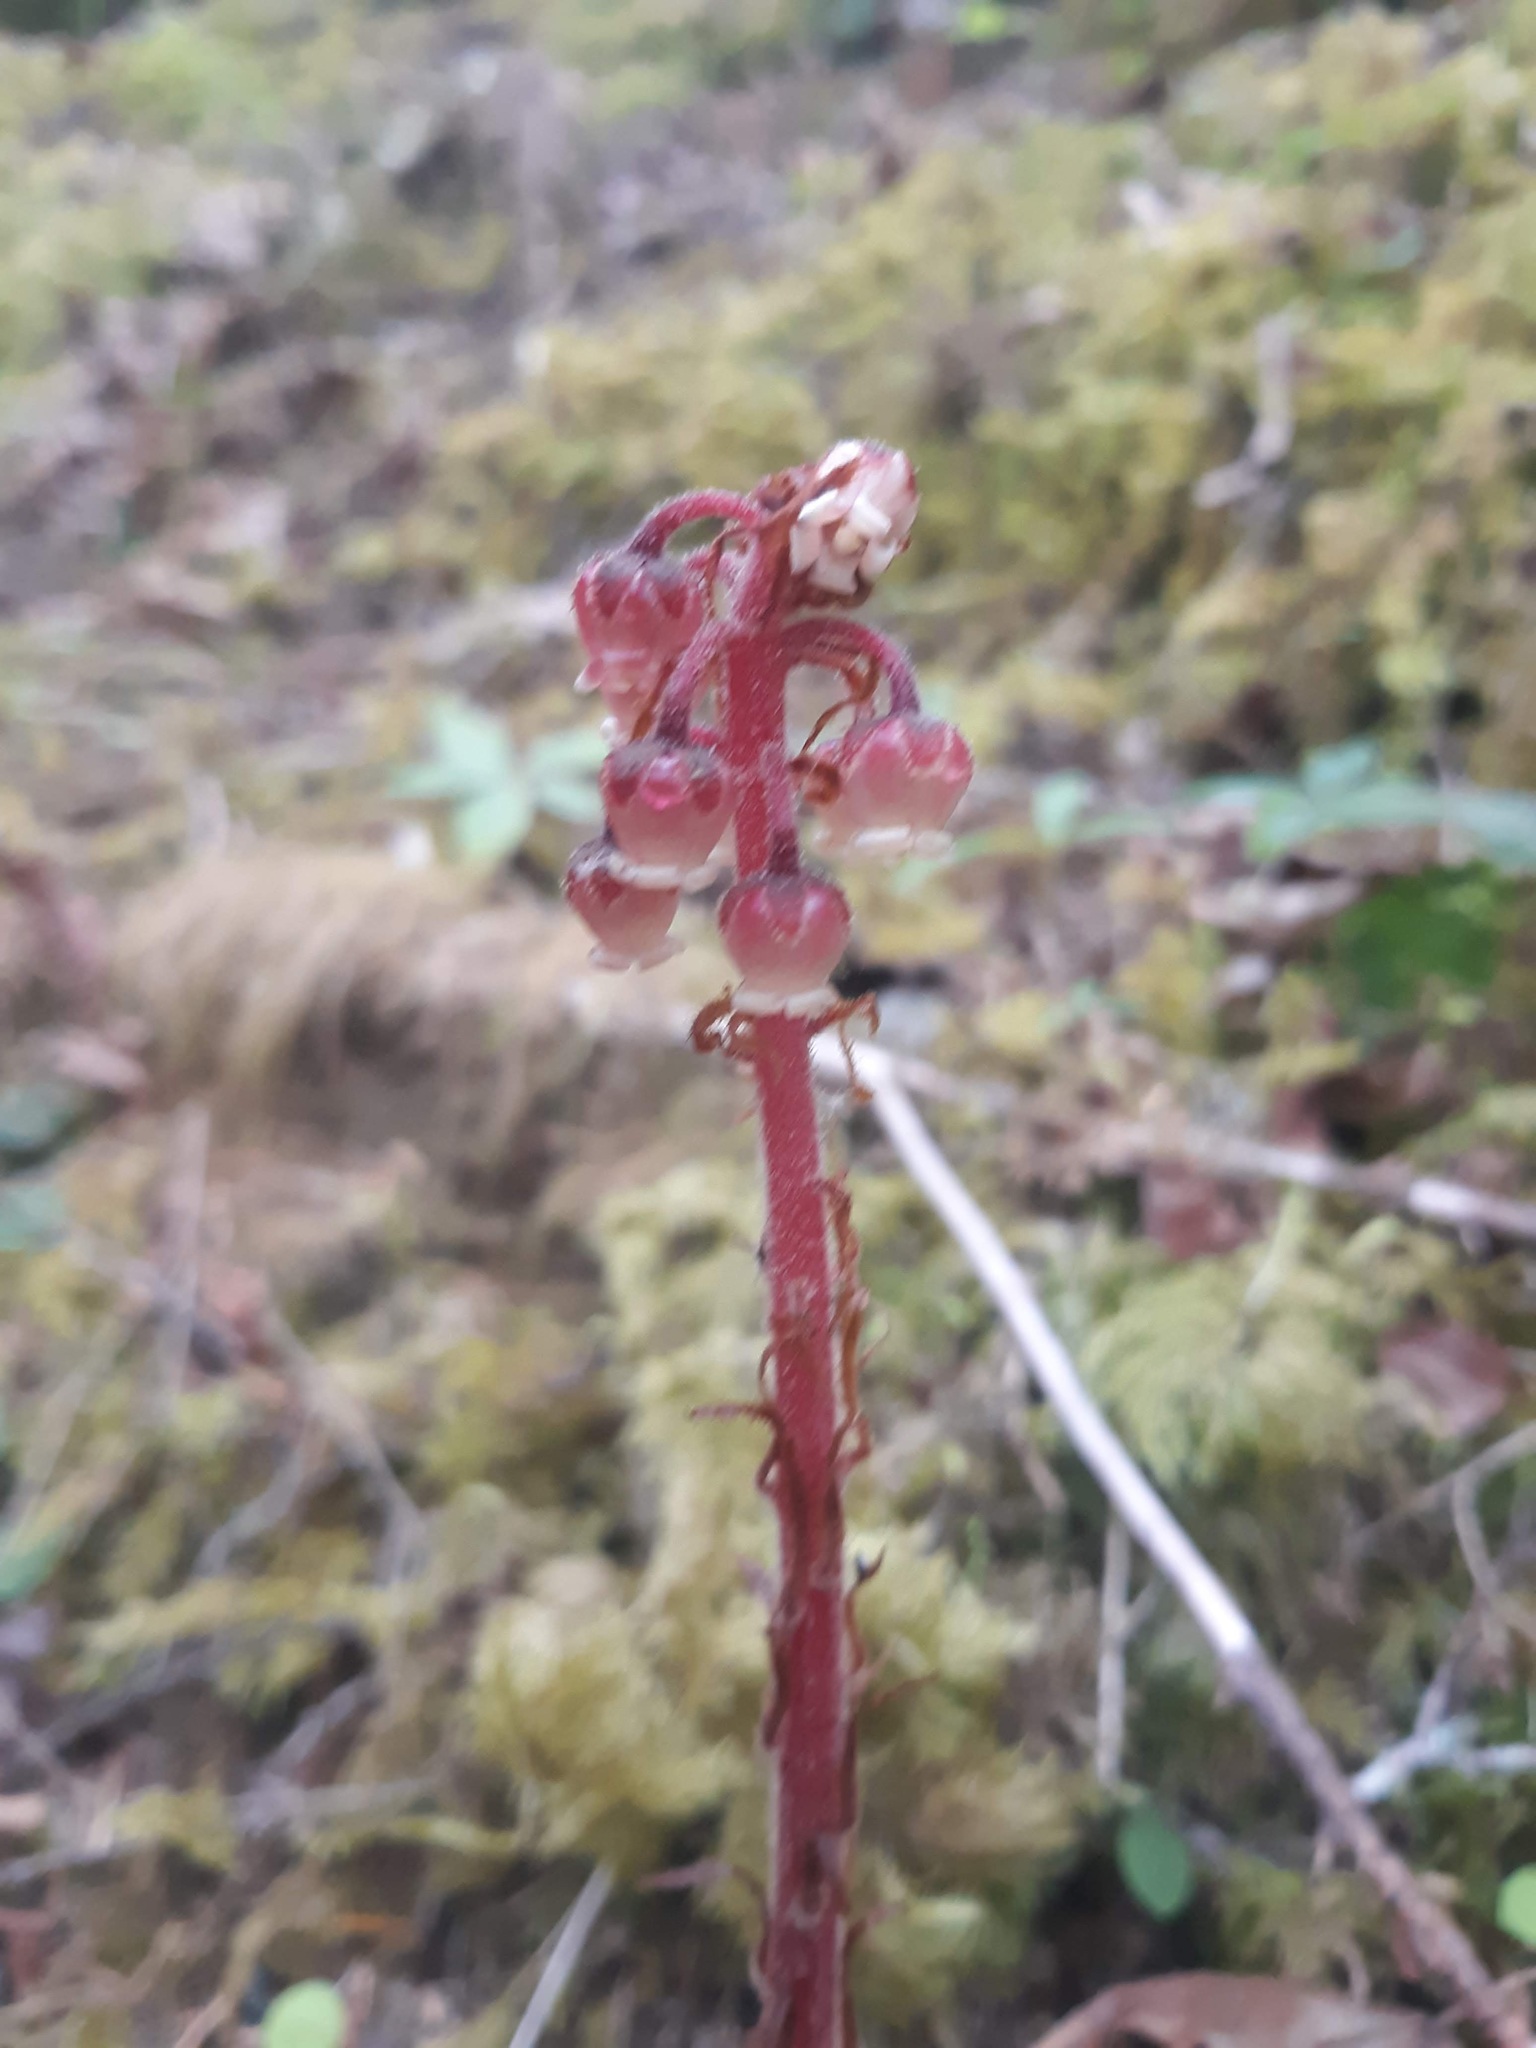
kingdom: Plantae
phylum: Tracheophyta
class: Magnoliopsida
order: Ericales
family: Ericaceae
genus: Pterospora
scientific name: Pterospora andromedea
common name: Giant bird's-nest
